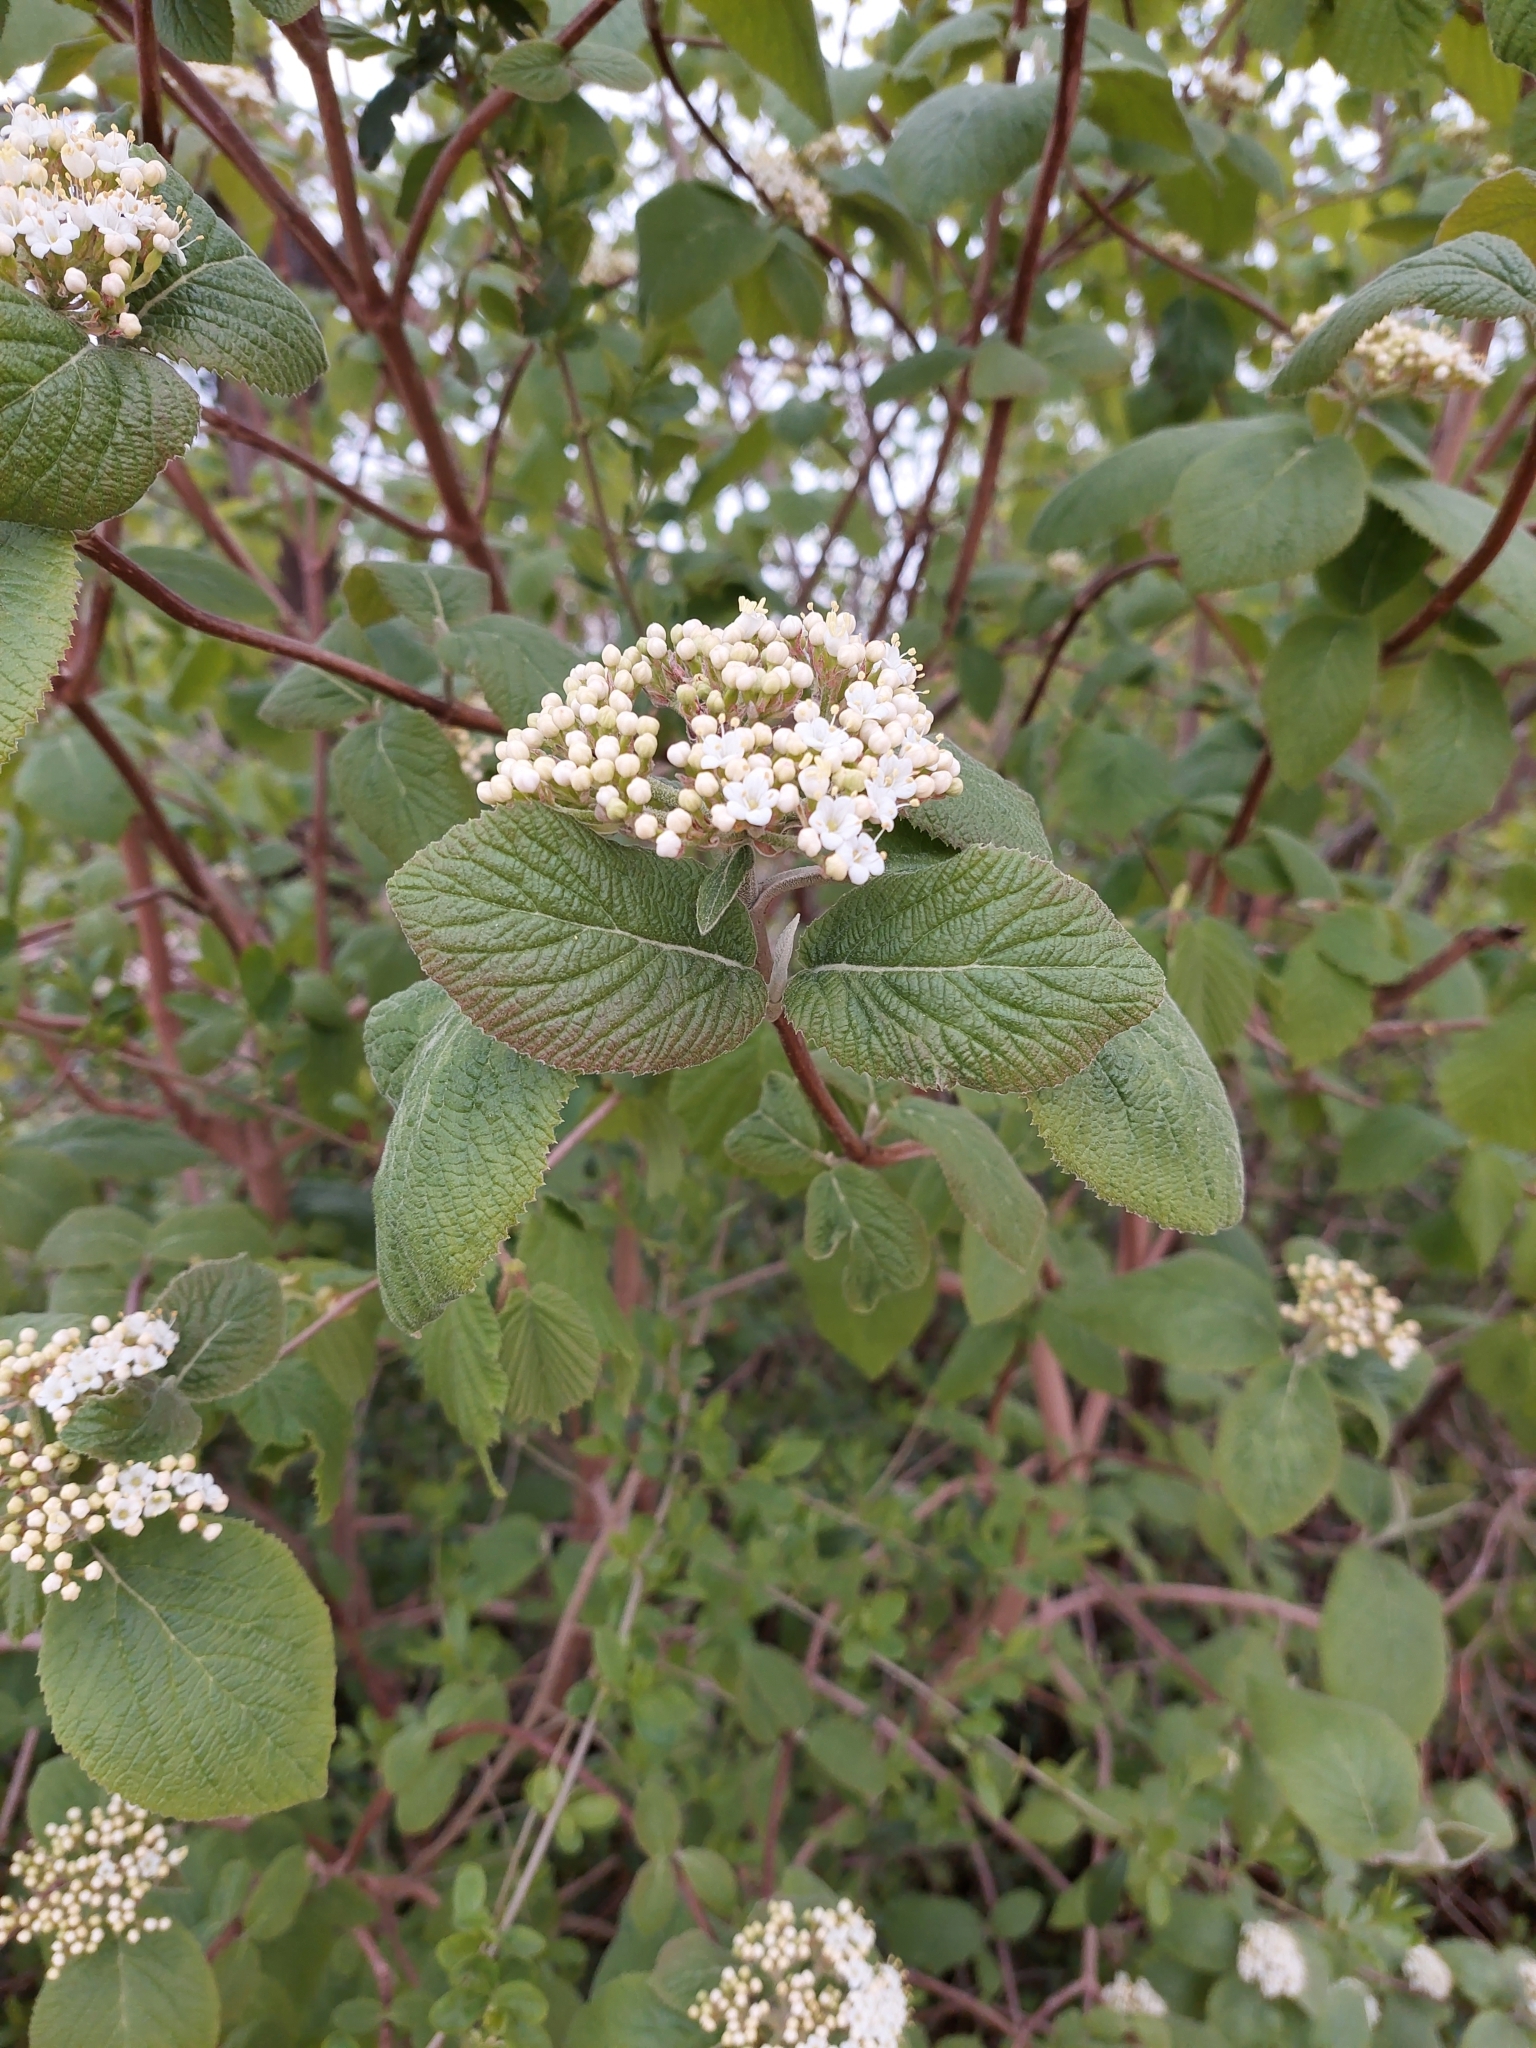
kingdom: Plantae
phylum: Tracheophyta
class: Magnoliopsida
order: Dipsacales
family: Viburnaceae
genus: Viburnum
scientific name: Viburnum lantana
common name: Wayfaring tree
